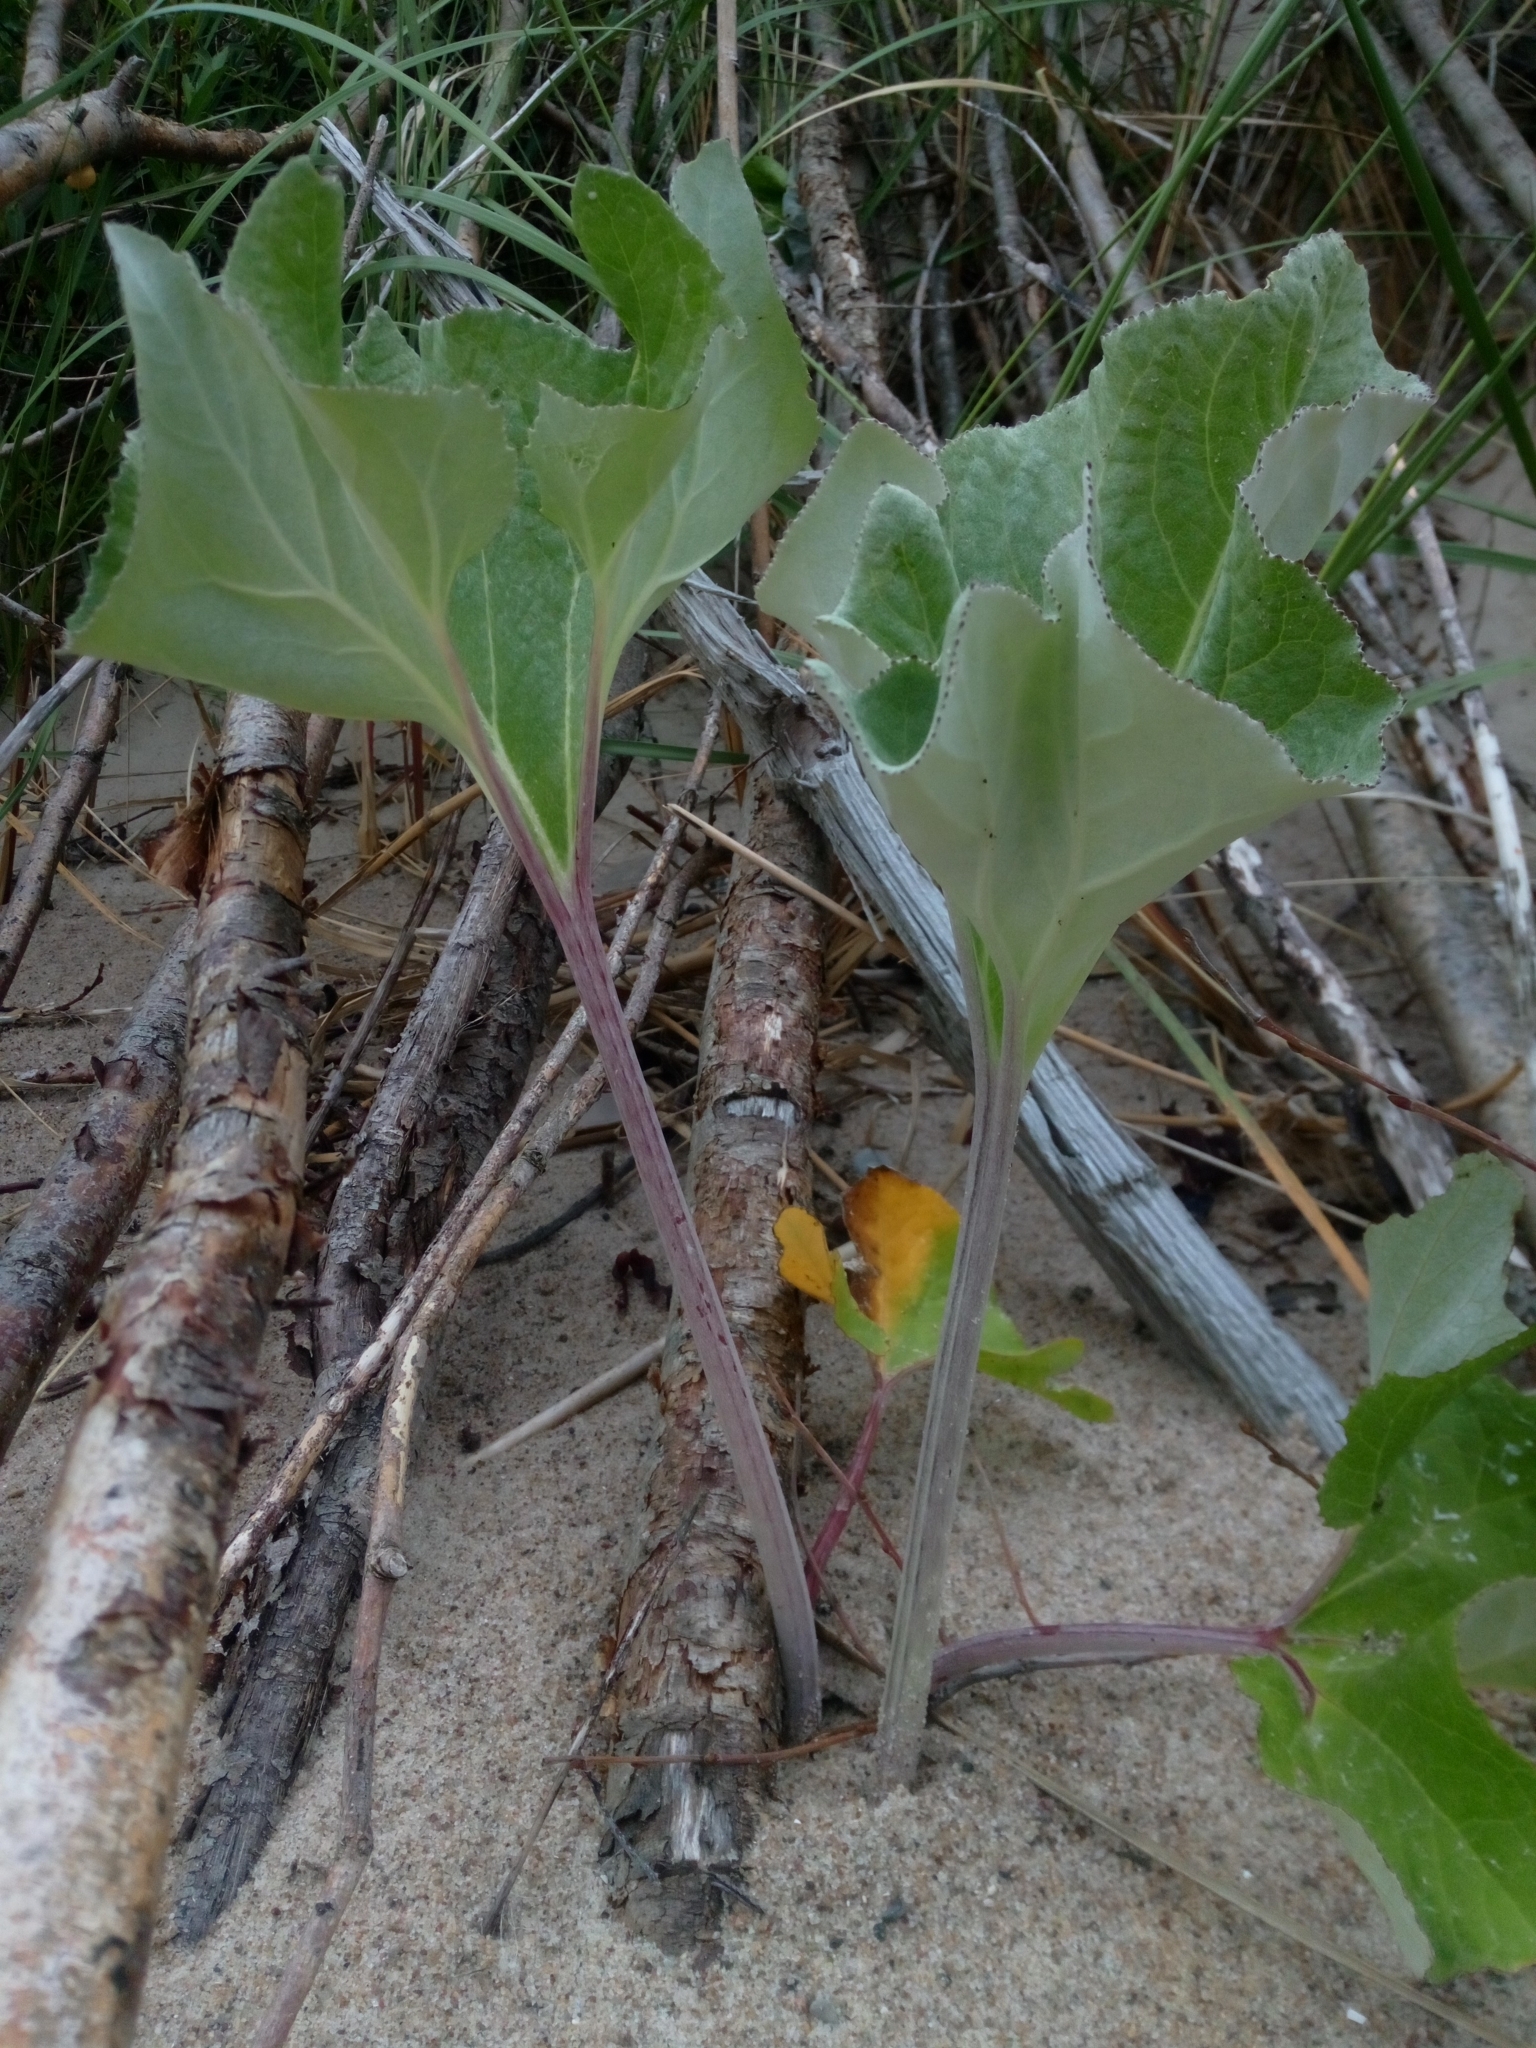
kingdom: Plantae
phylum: Tracheophyta
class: Magnoliopsida
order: Asterales
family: Asteraceae
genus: Petasites
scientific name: Petasites spurius
